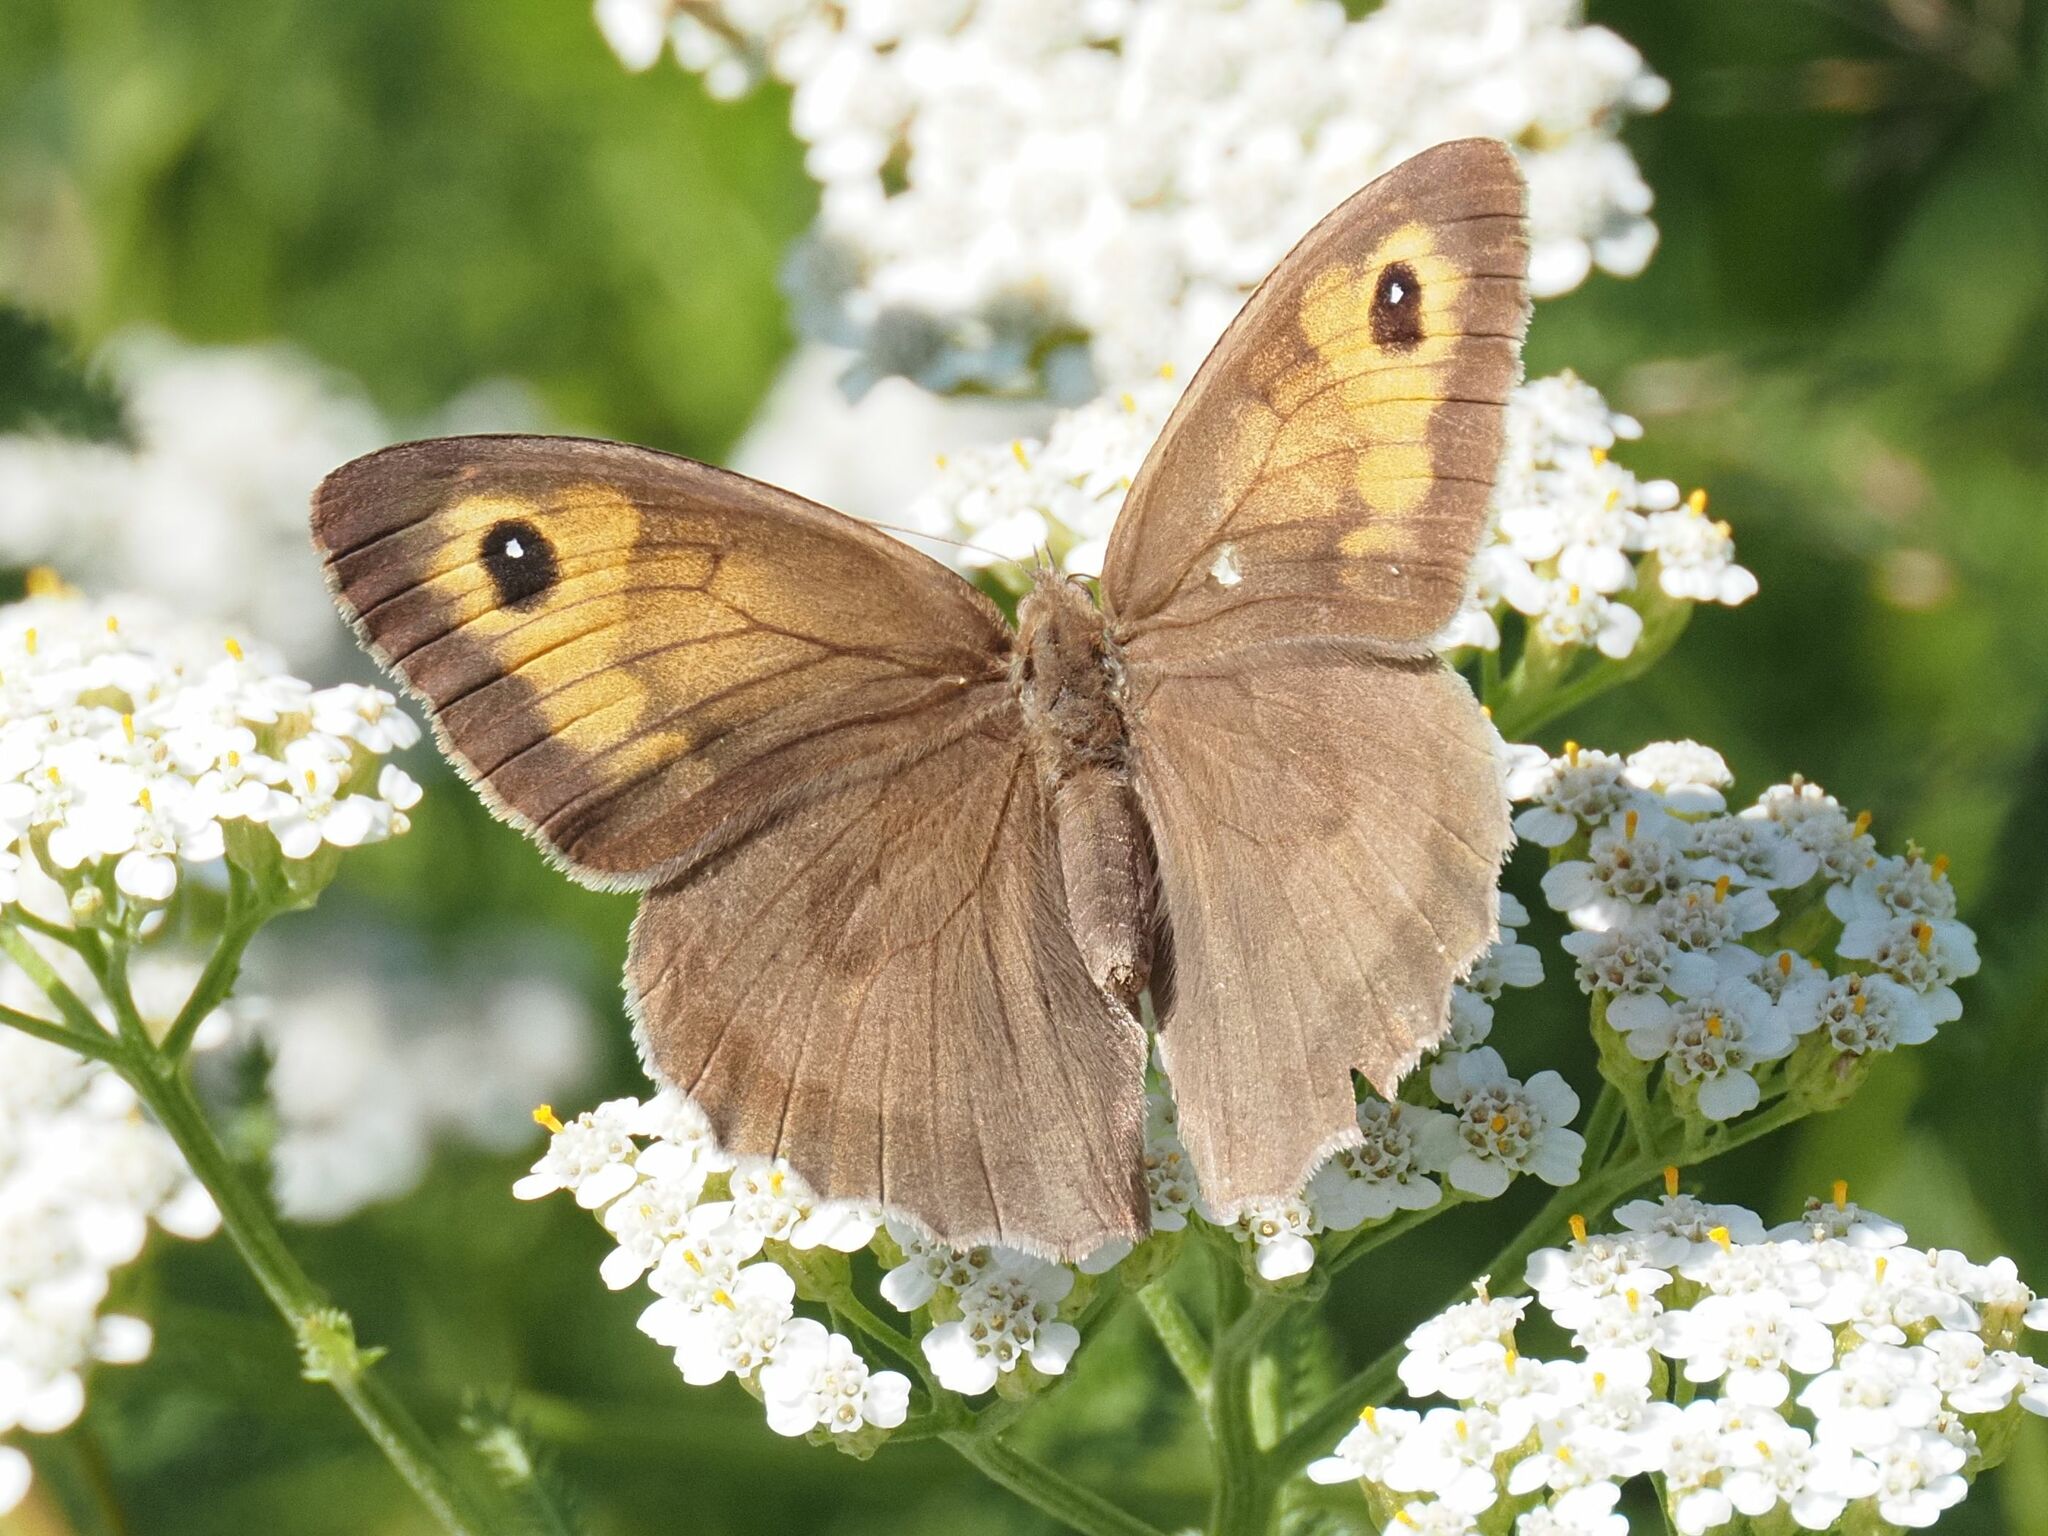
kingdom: Animalia
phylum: Arthropoda
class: Insecta
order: Lepidoptera
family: Nymphalidae
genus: Maniola
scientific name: Maniola jurtina
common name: Meadow brown
